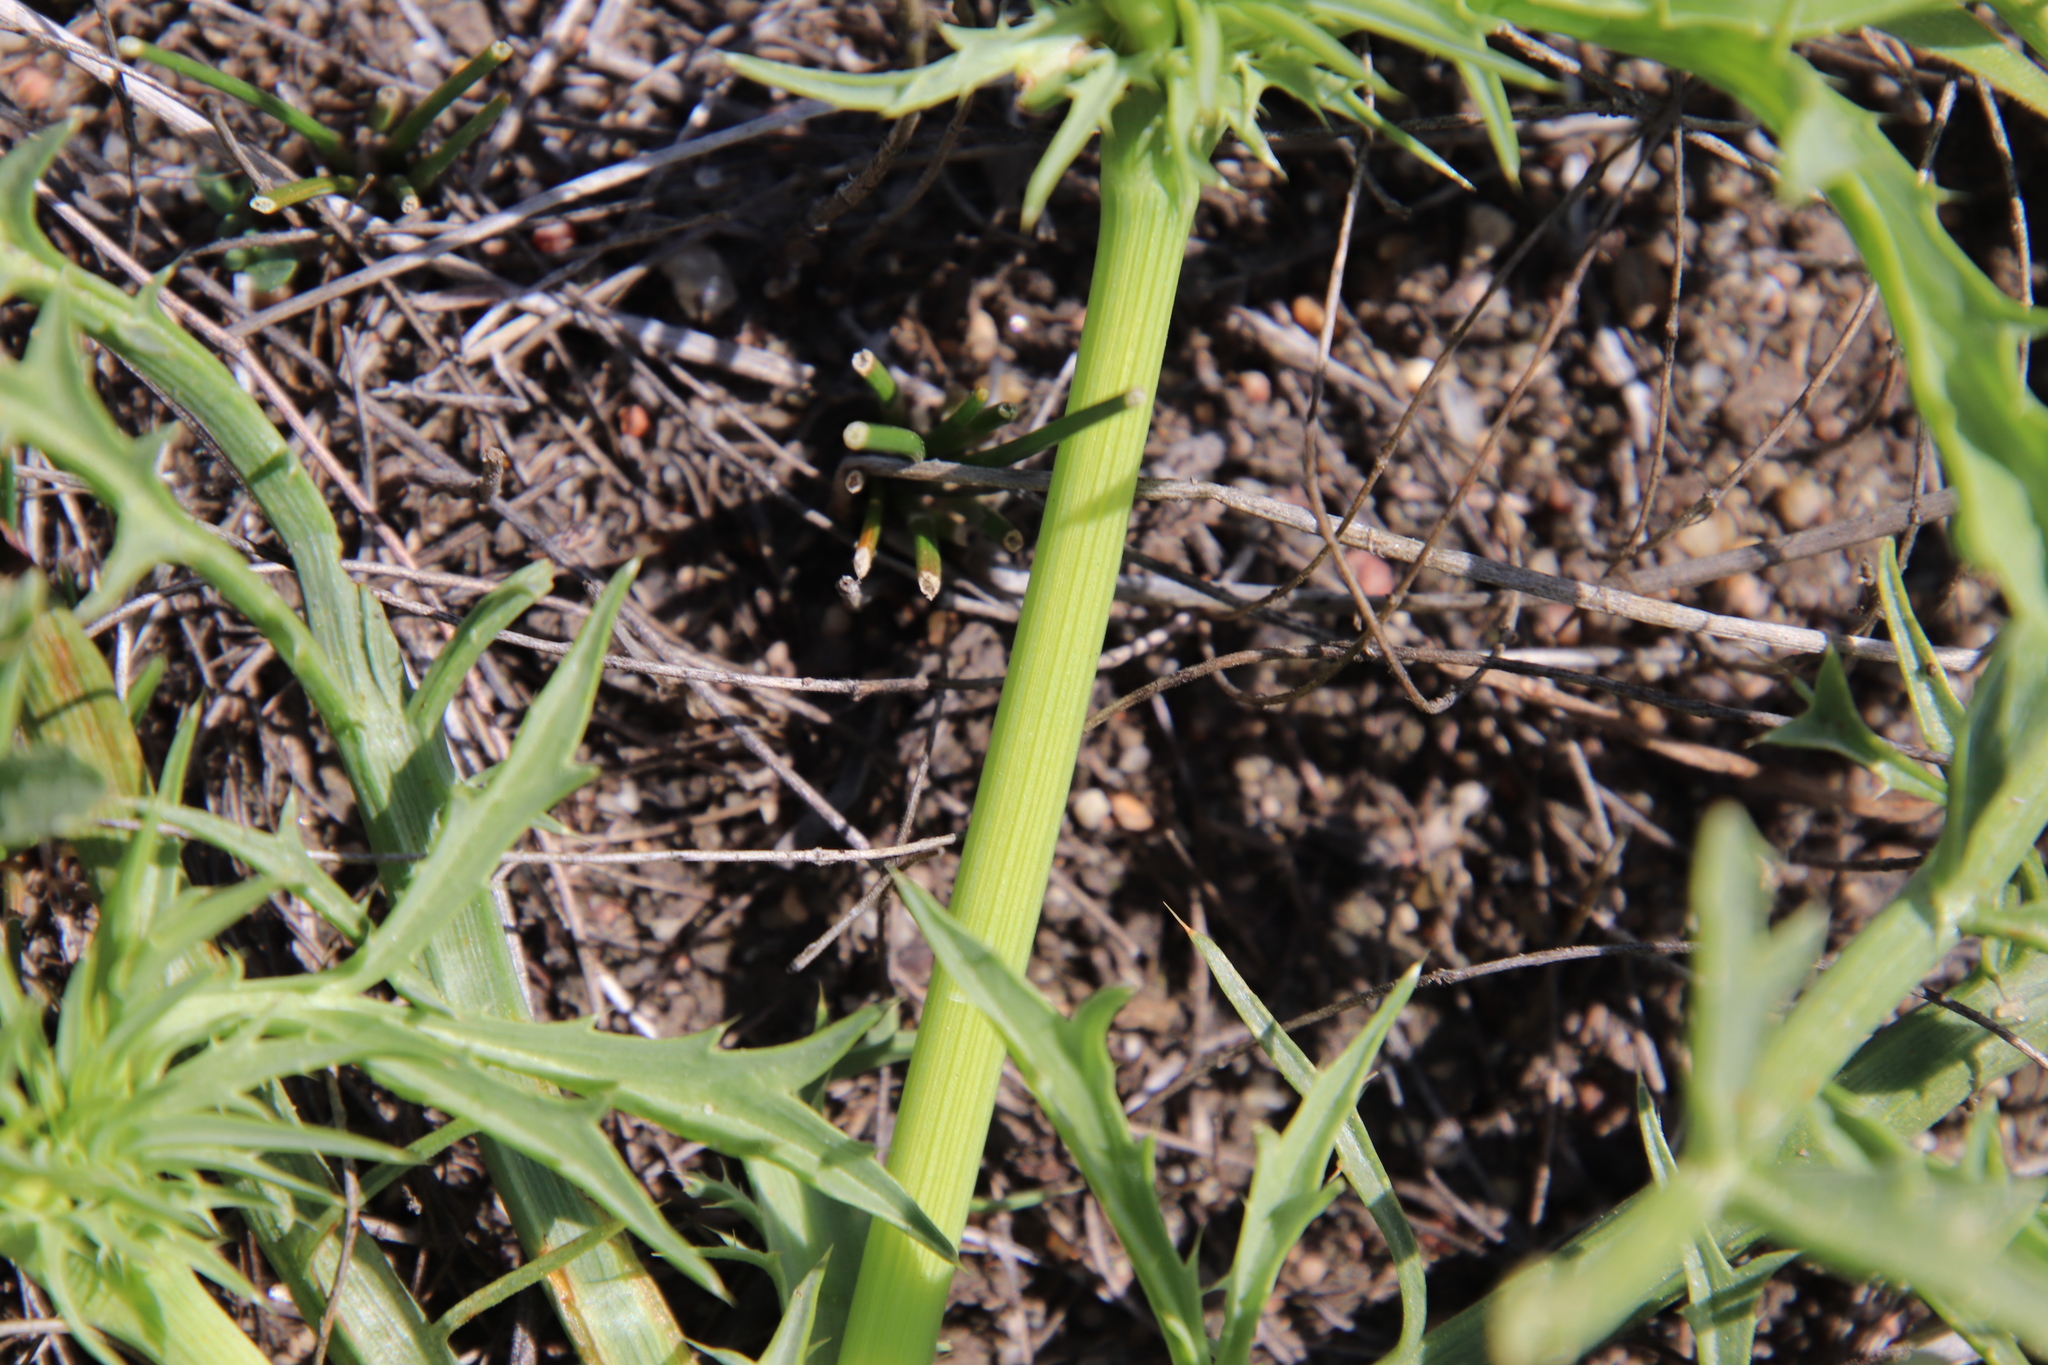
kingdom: Plantae
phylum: Tracheophyta
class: Magnoliopsida
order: Apiales
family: Apiaceae
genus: Eryngium
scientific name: Eryngium aristulatum
